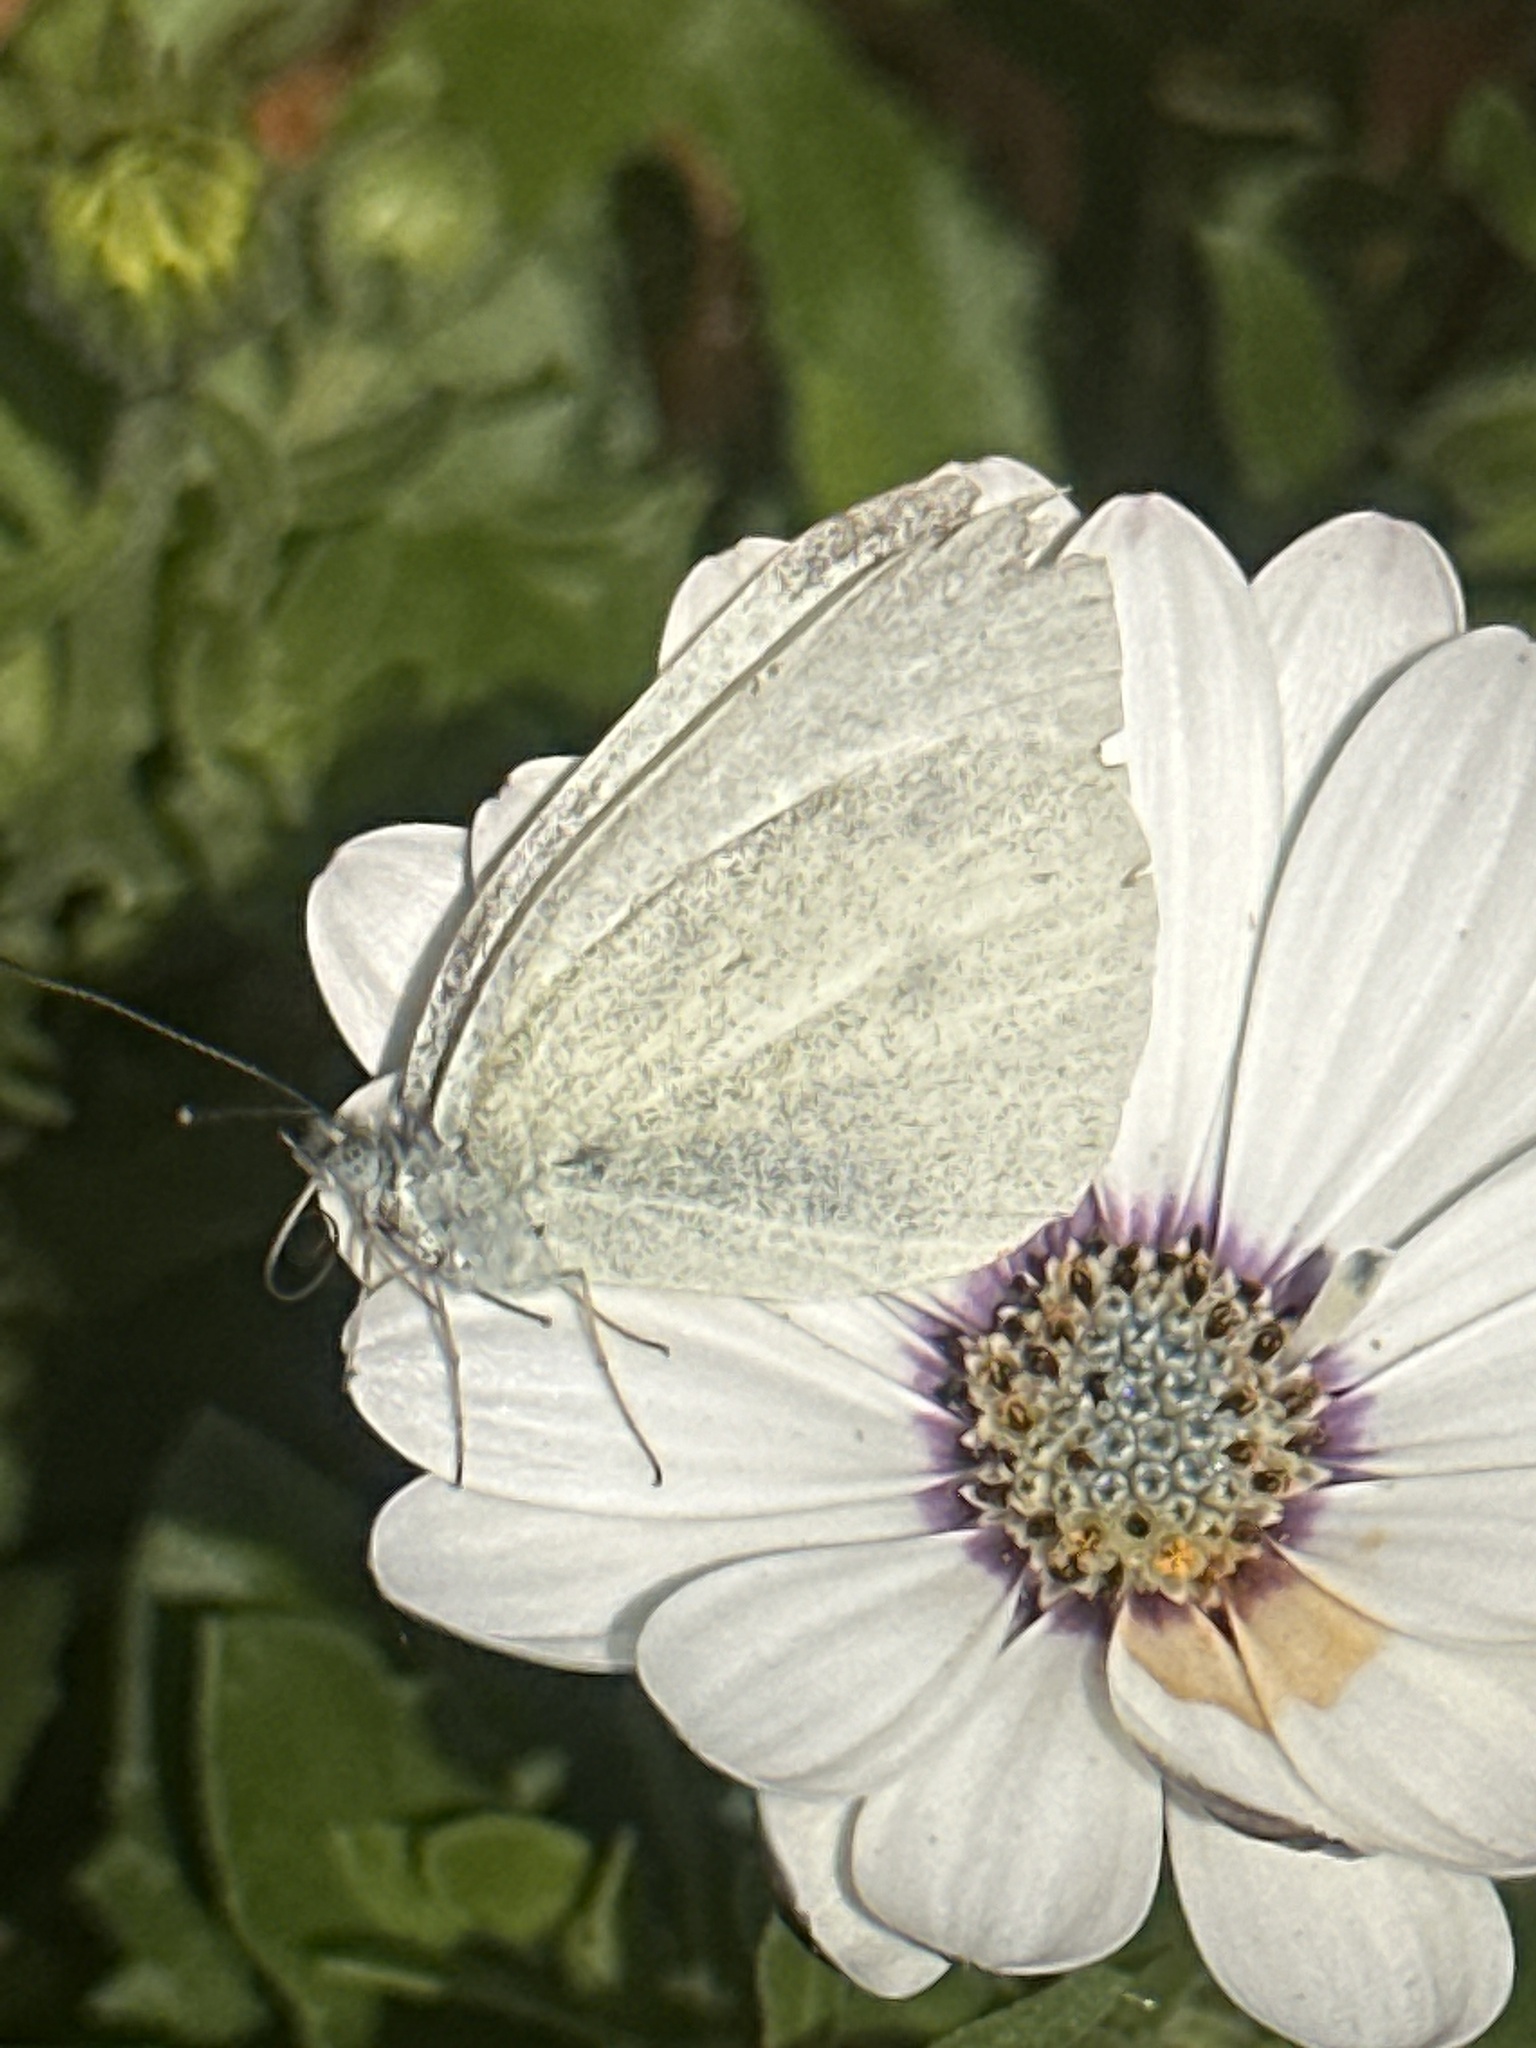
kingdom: Animalia
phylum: Arthropoda
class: Insecta
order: Lepidoptera
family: Pieridae
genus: Pieris
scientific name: Pieris rapae
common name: Small white
